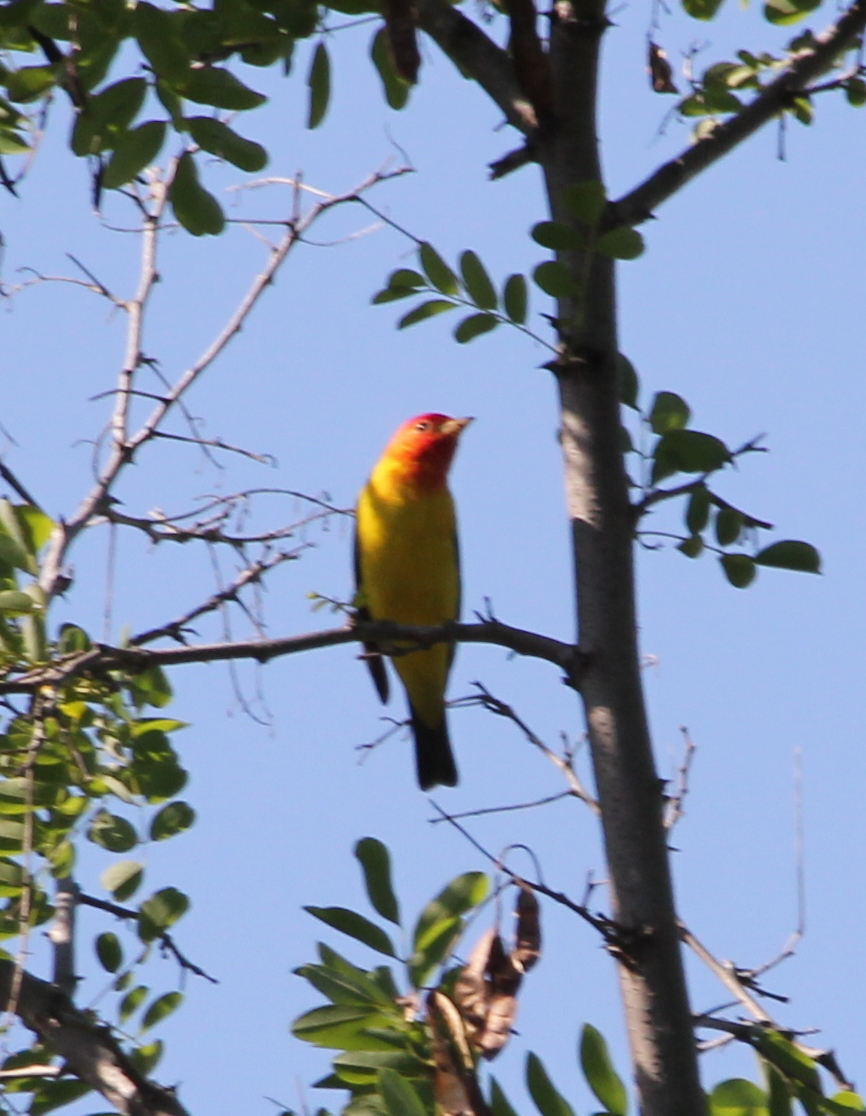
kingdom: Animalia
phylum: Chordata
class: Aves
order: Passeriformes
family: Cardinalidae
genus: Piranga
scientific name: Piranga ludoviciana
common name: Western tanager
